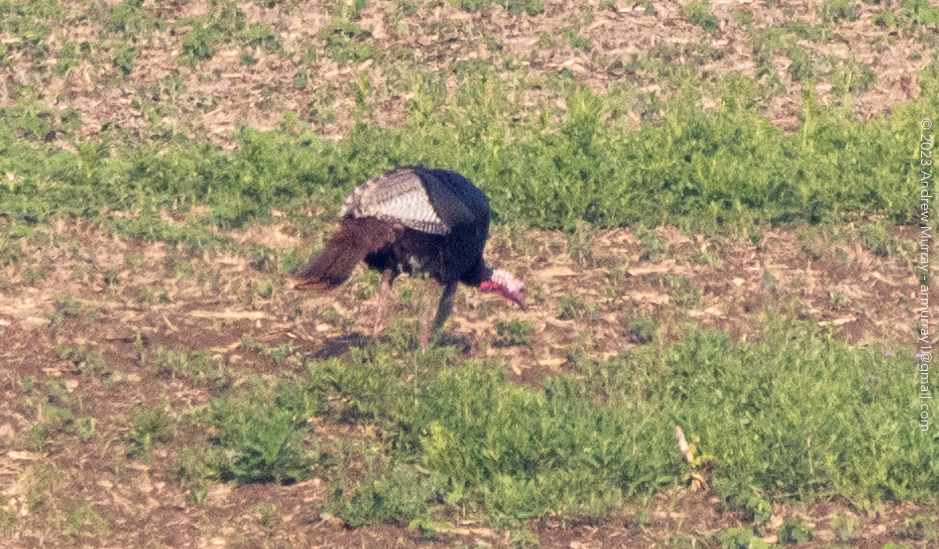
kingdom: Animalia
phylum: Chordata
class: Aves
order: Galliformes
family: Phasianidae
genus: Meleagris
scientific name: Meleagris gallopavo
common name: Wild turkey
